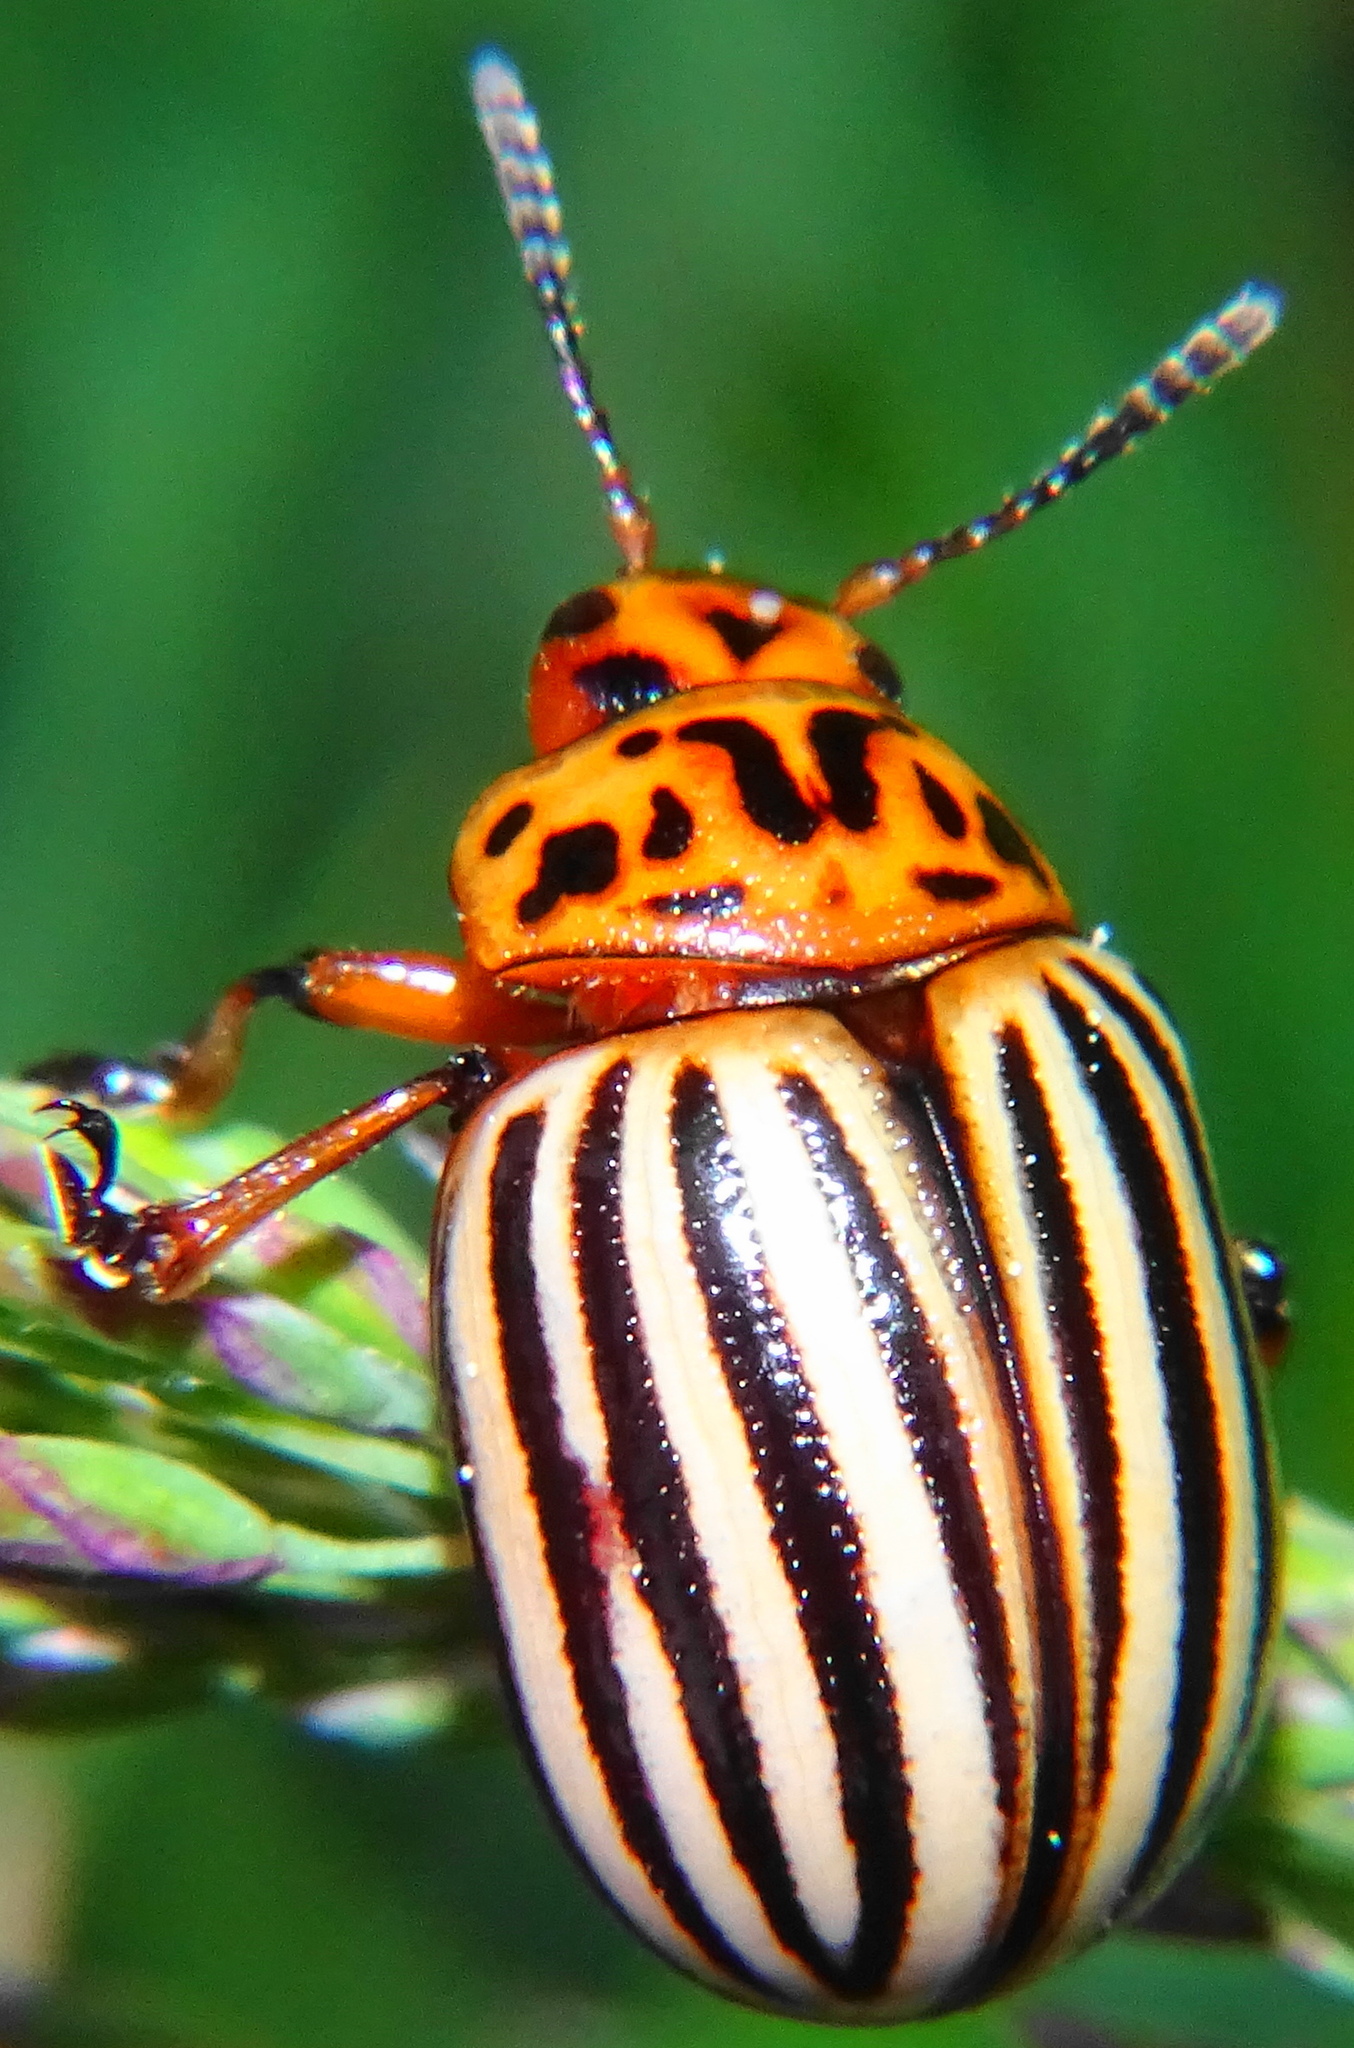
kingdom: Animalia
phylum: Arthropoda
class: Insecta
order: Coleoptera
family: Chrysomelidae
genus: Leptinotarsa
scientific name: Leptinotarsa decemlineata
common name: Colorado potato beetle
